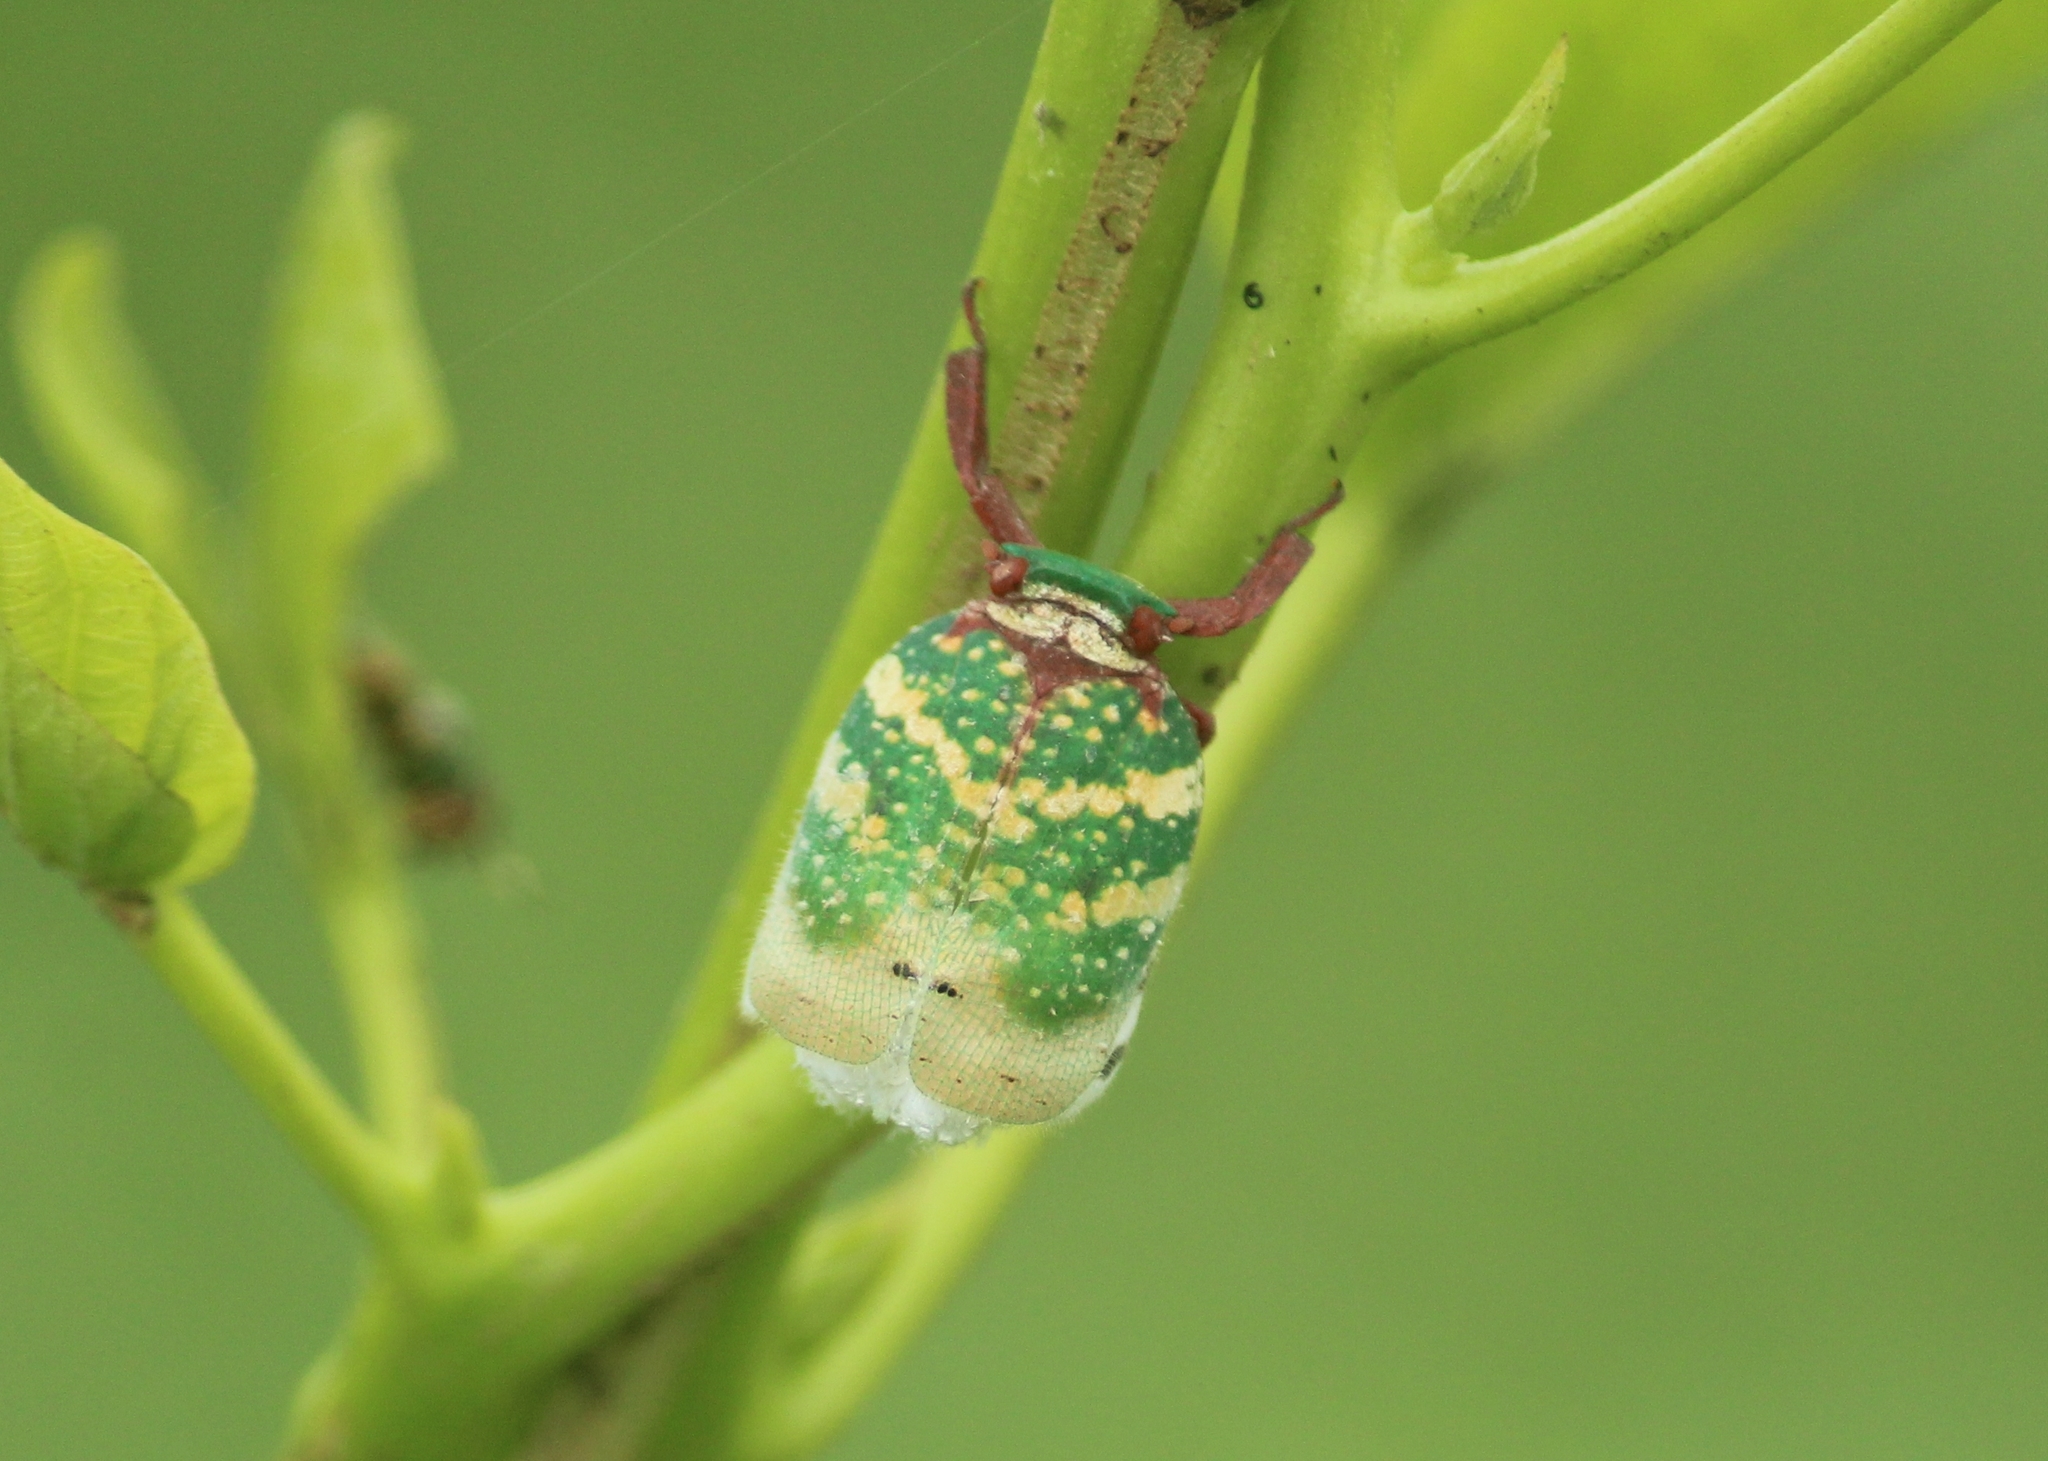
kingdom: Animalia
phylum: Arthropoda
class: Insecta
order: Hemiptera
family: Eurybrachidae
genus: Eurybrachys
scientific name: Eurybrachys tomentosa
